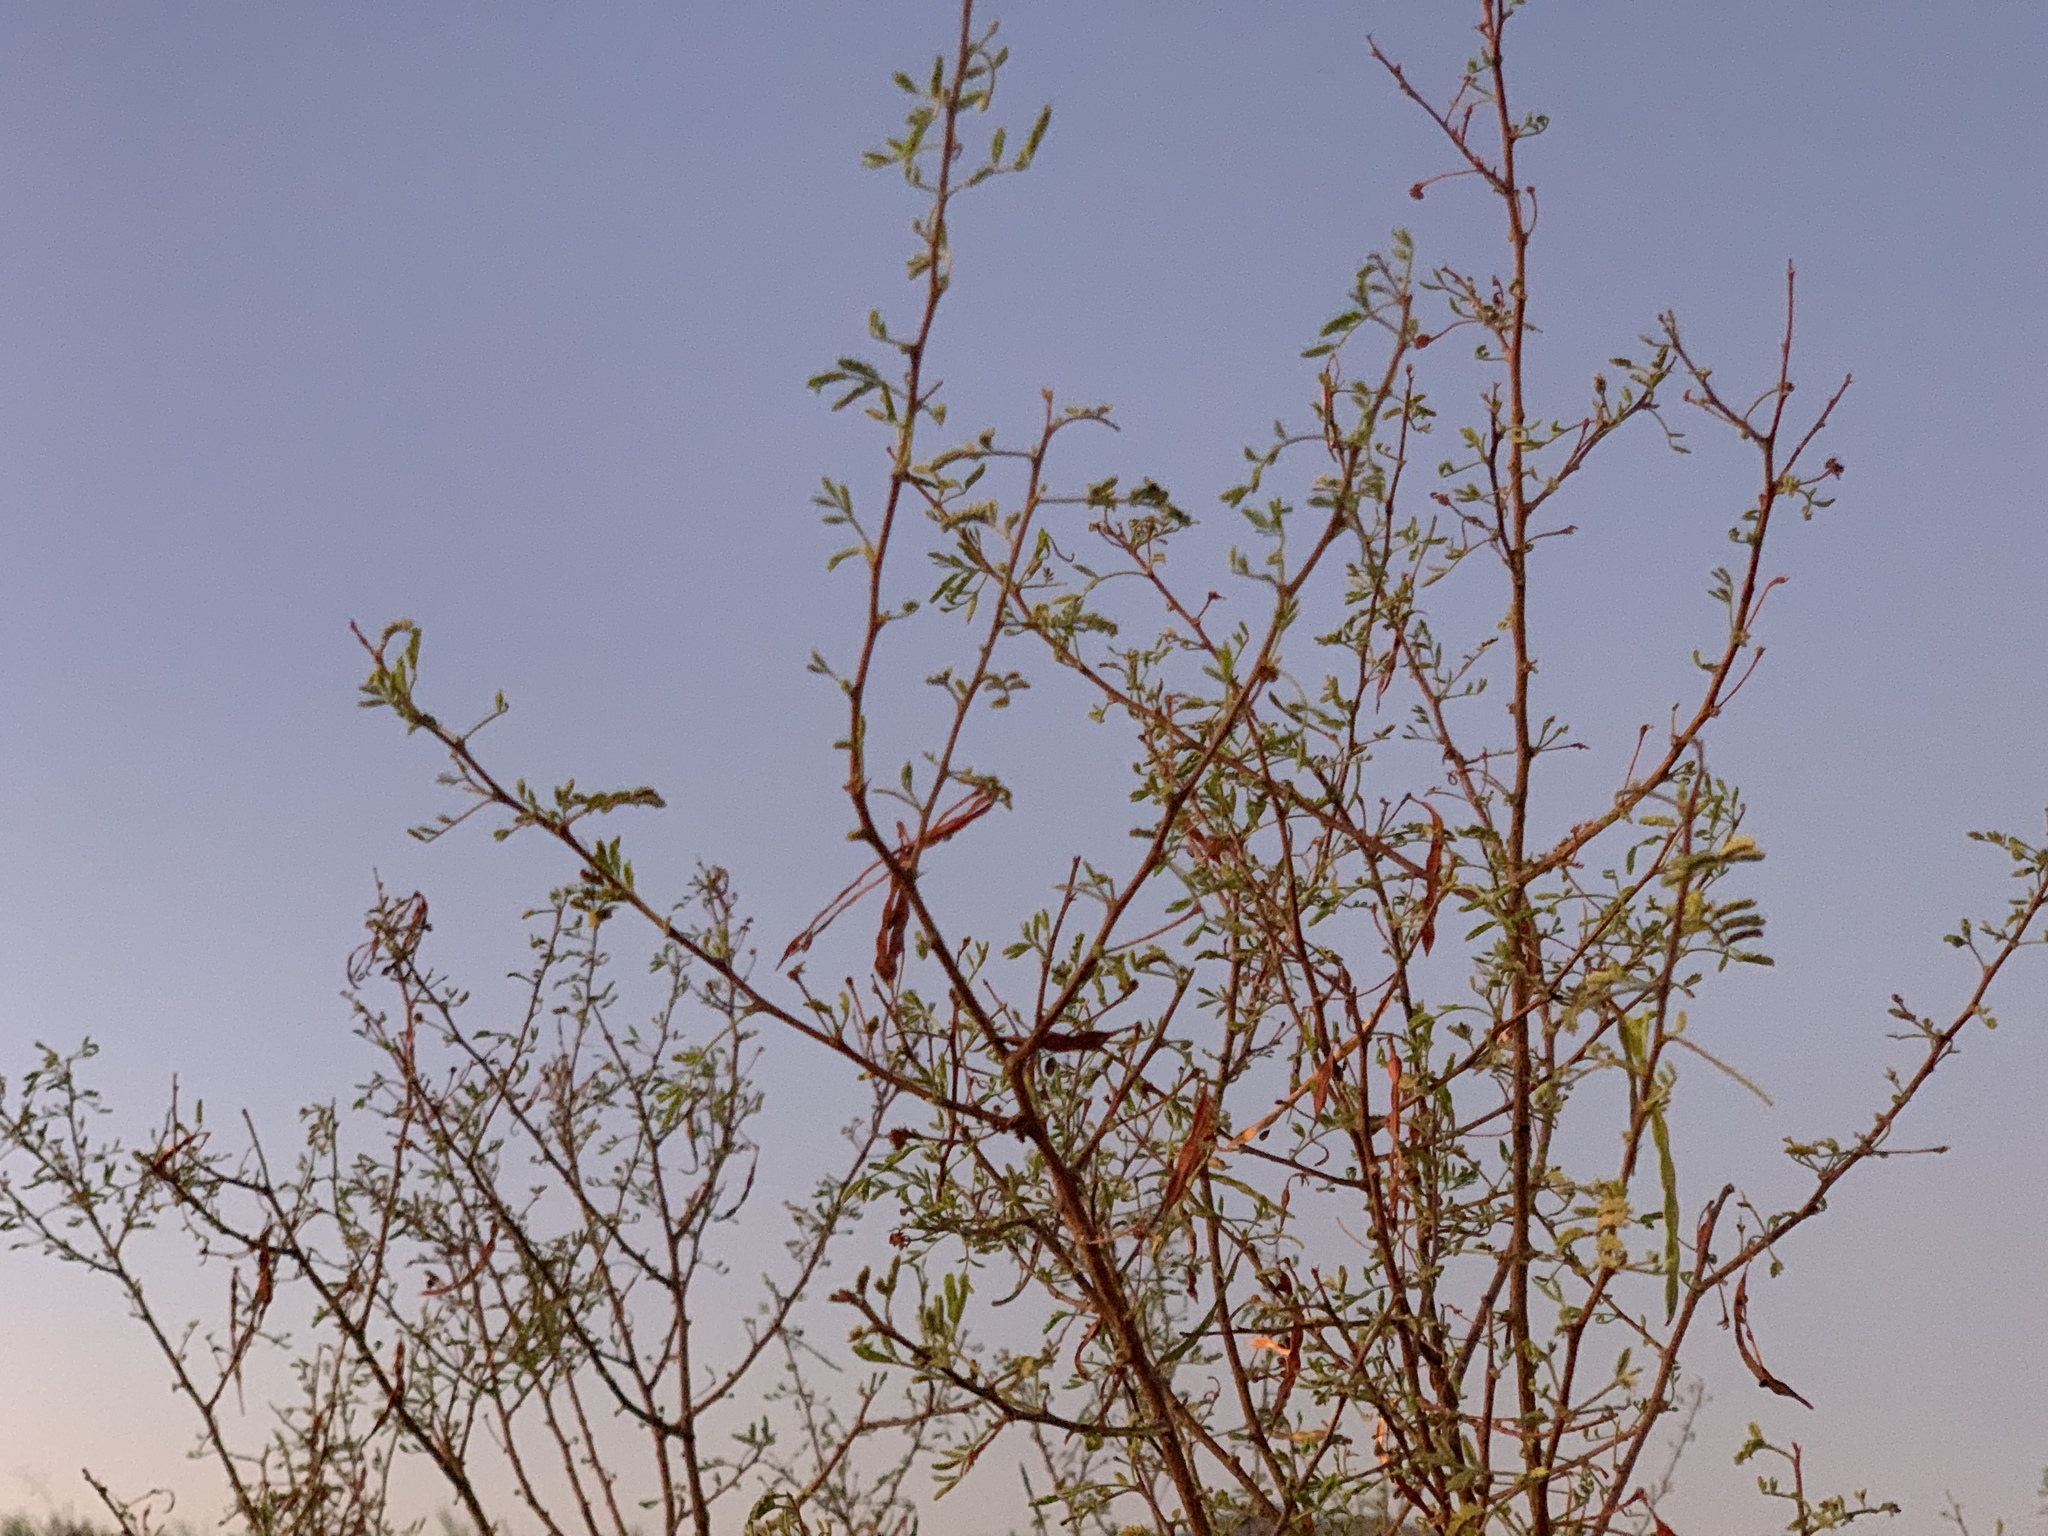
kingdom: Plantae
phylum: Tracheophyta
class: Magnoliopsida
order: Fabales
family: Fabaceae
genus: Vachellia
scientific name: Vachellia constricta
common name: Mescat acacia
